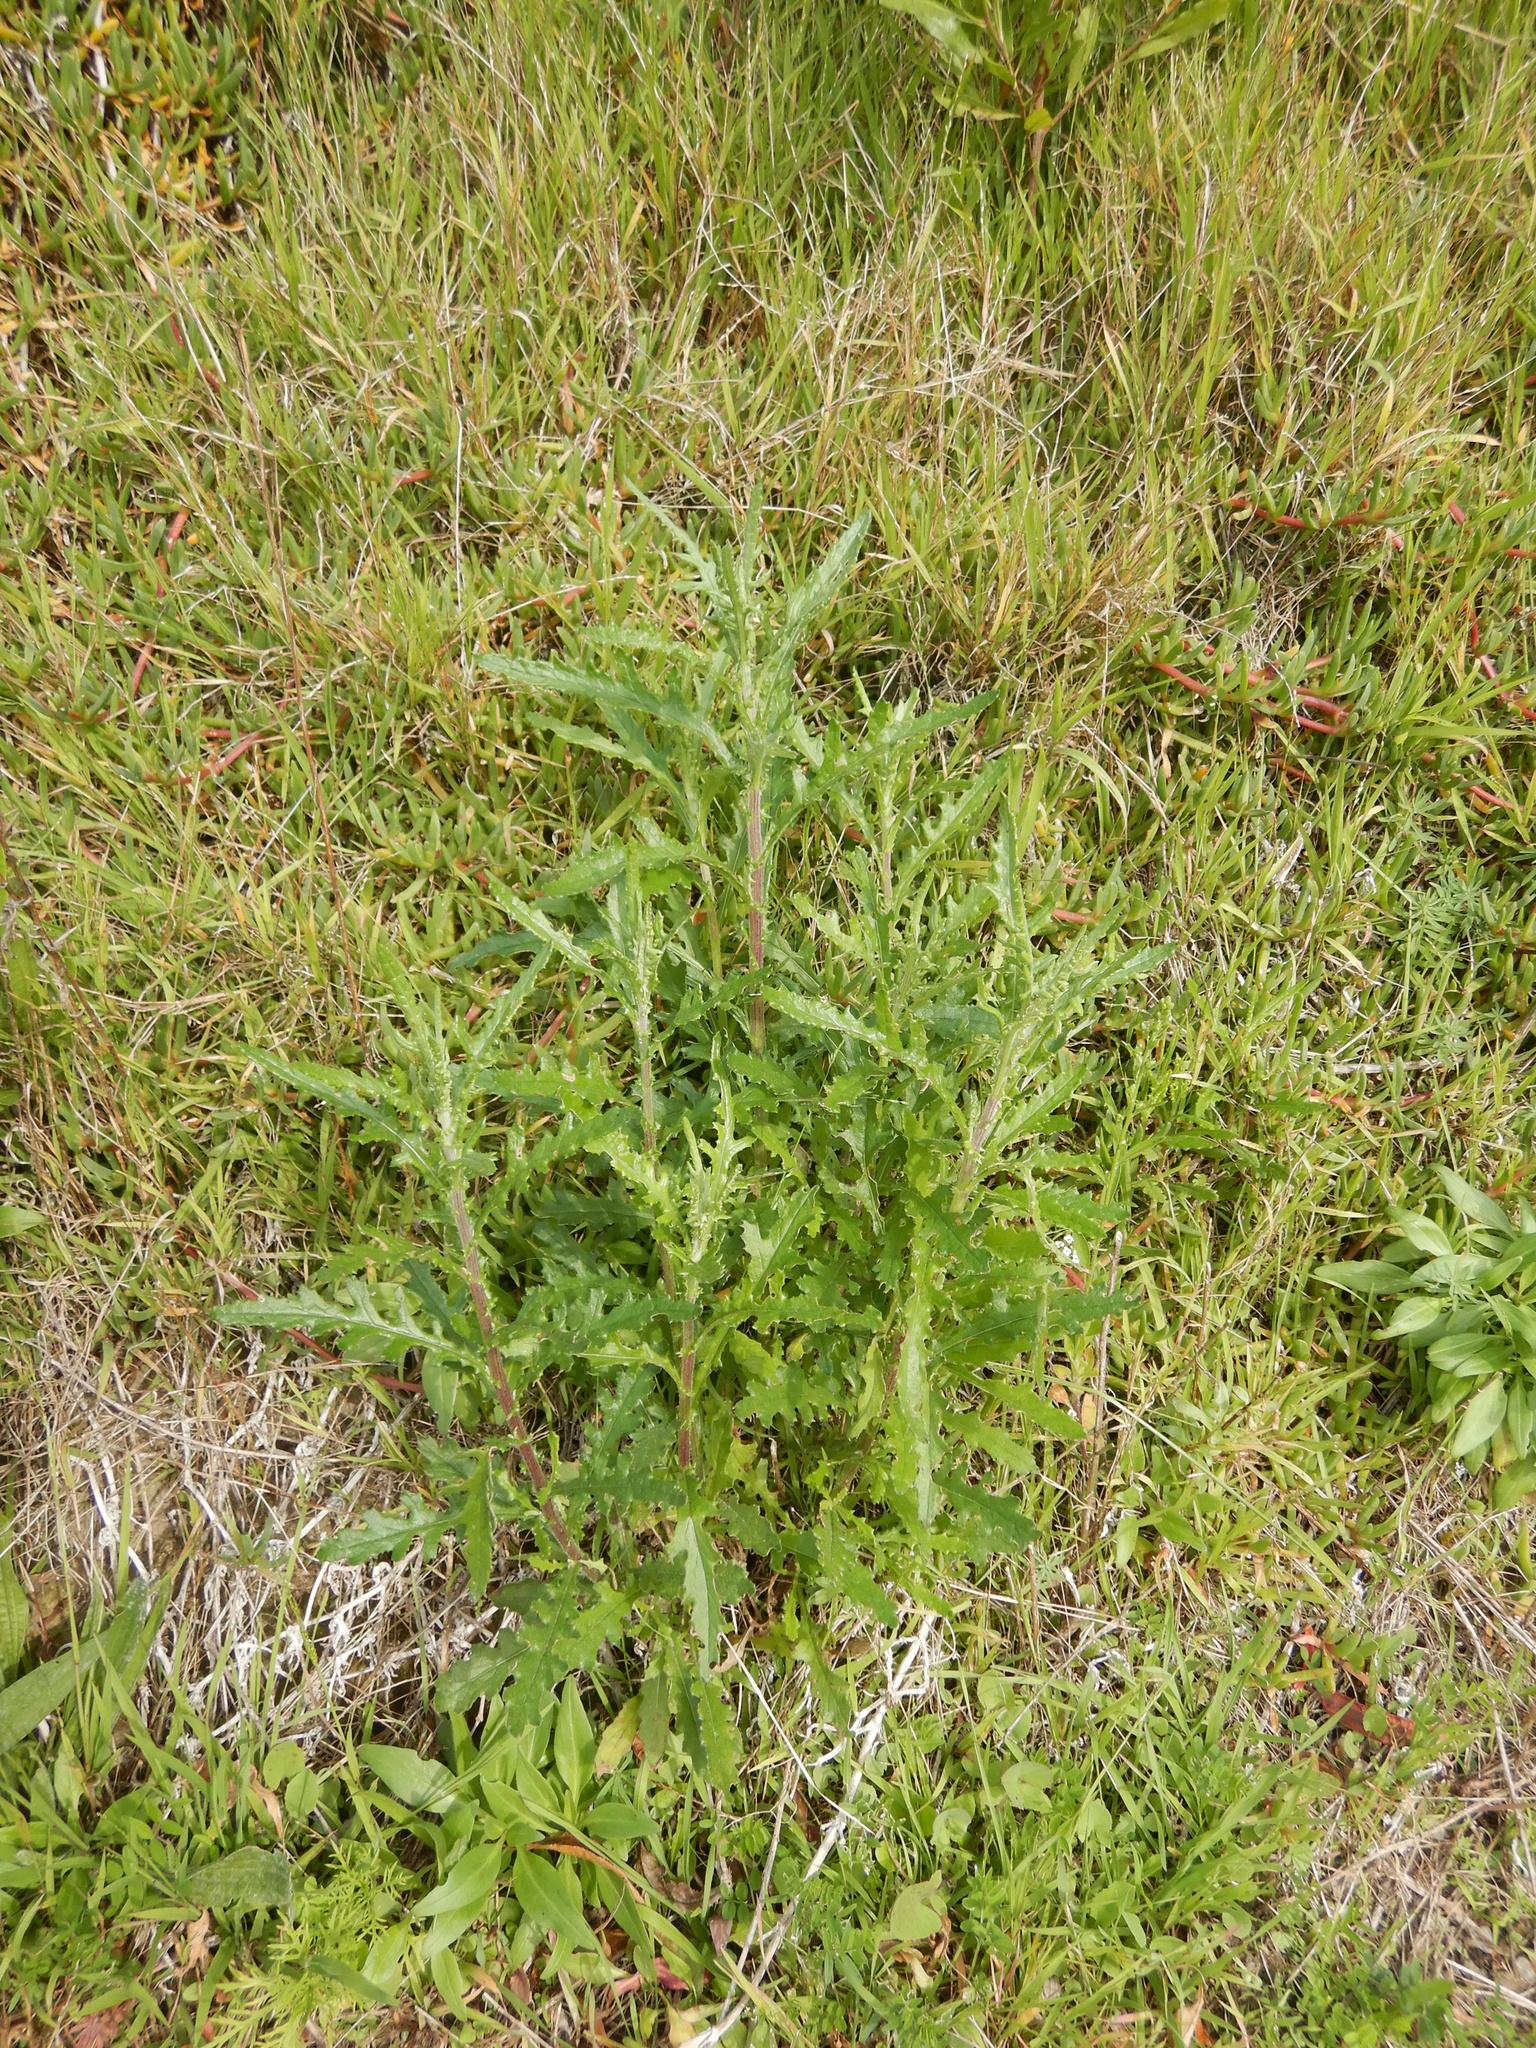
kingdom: Plantae
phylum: Tracheophyta
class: Magnoliopsida
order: Asterales
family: Asteraceae
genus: Senecio
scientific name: Senecio hispidulus
